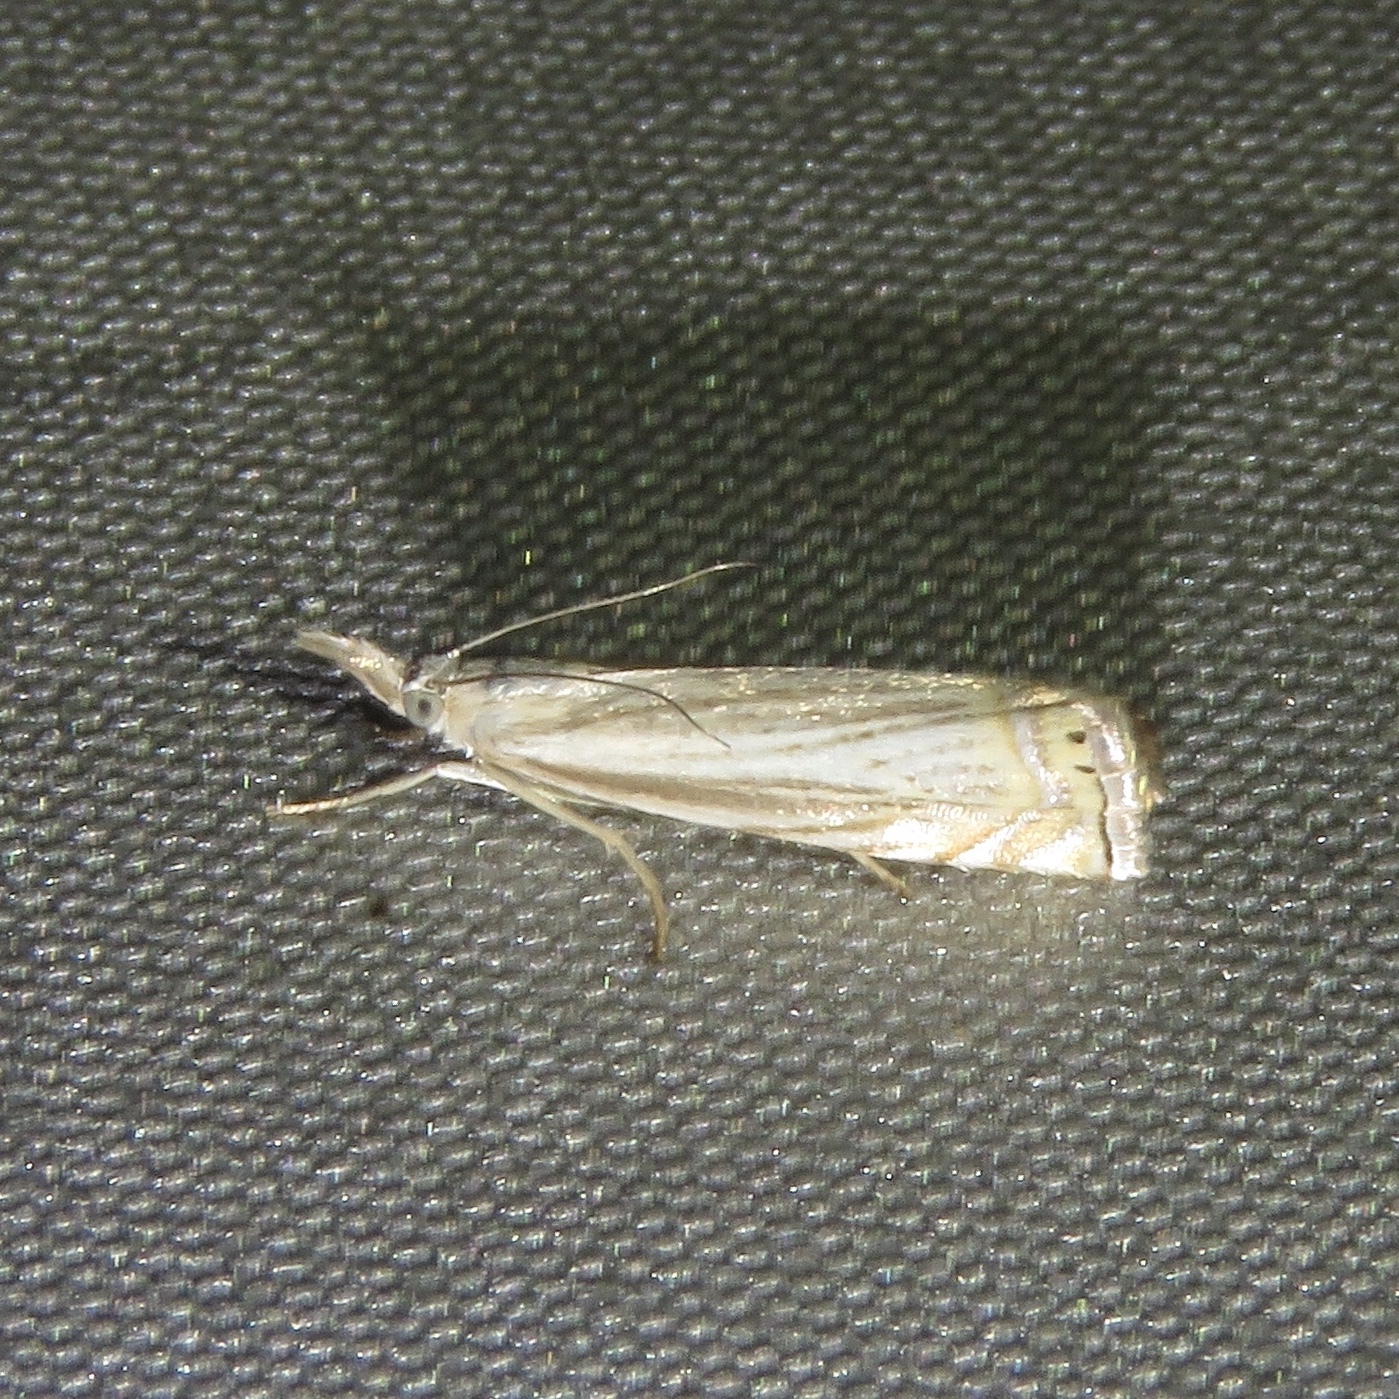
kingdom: Animalia
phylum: Arthropoda
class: Insecta
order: Lepidoptera
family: Crambidae
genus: Chrysoteuchia
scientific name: Chrysoteuchia topiarius
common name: Topiary grass-veneer
